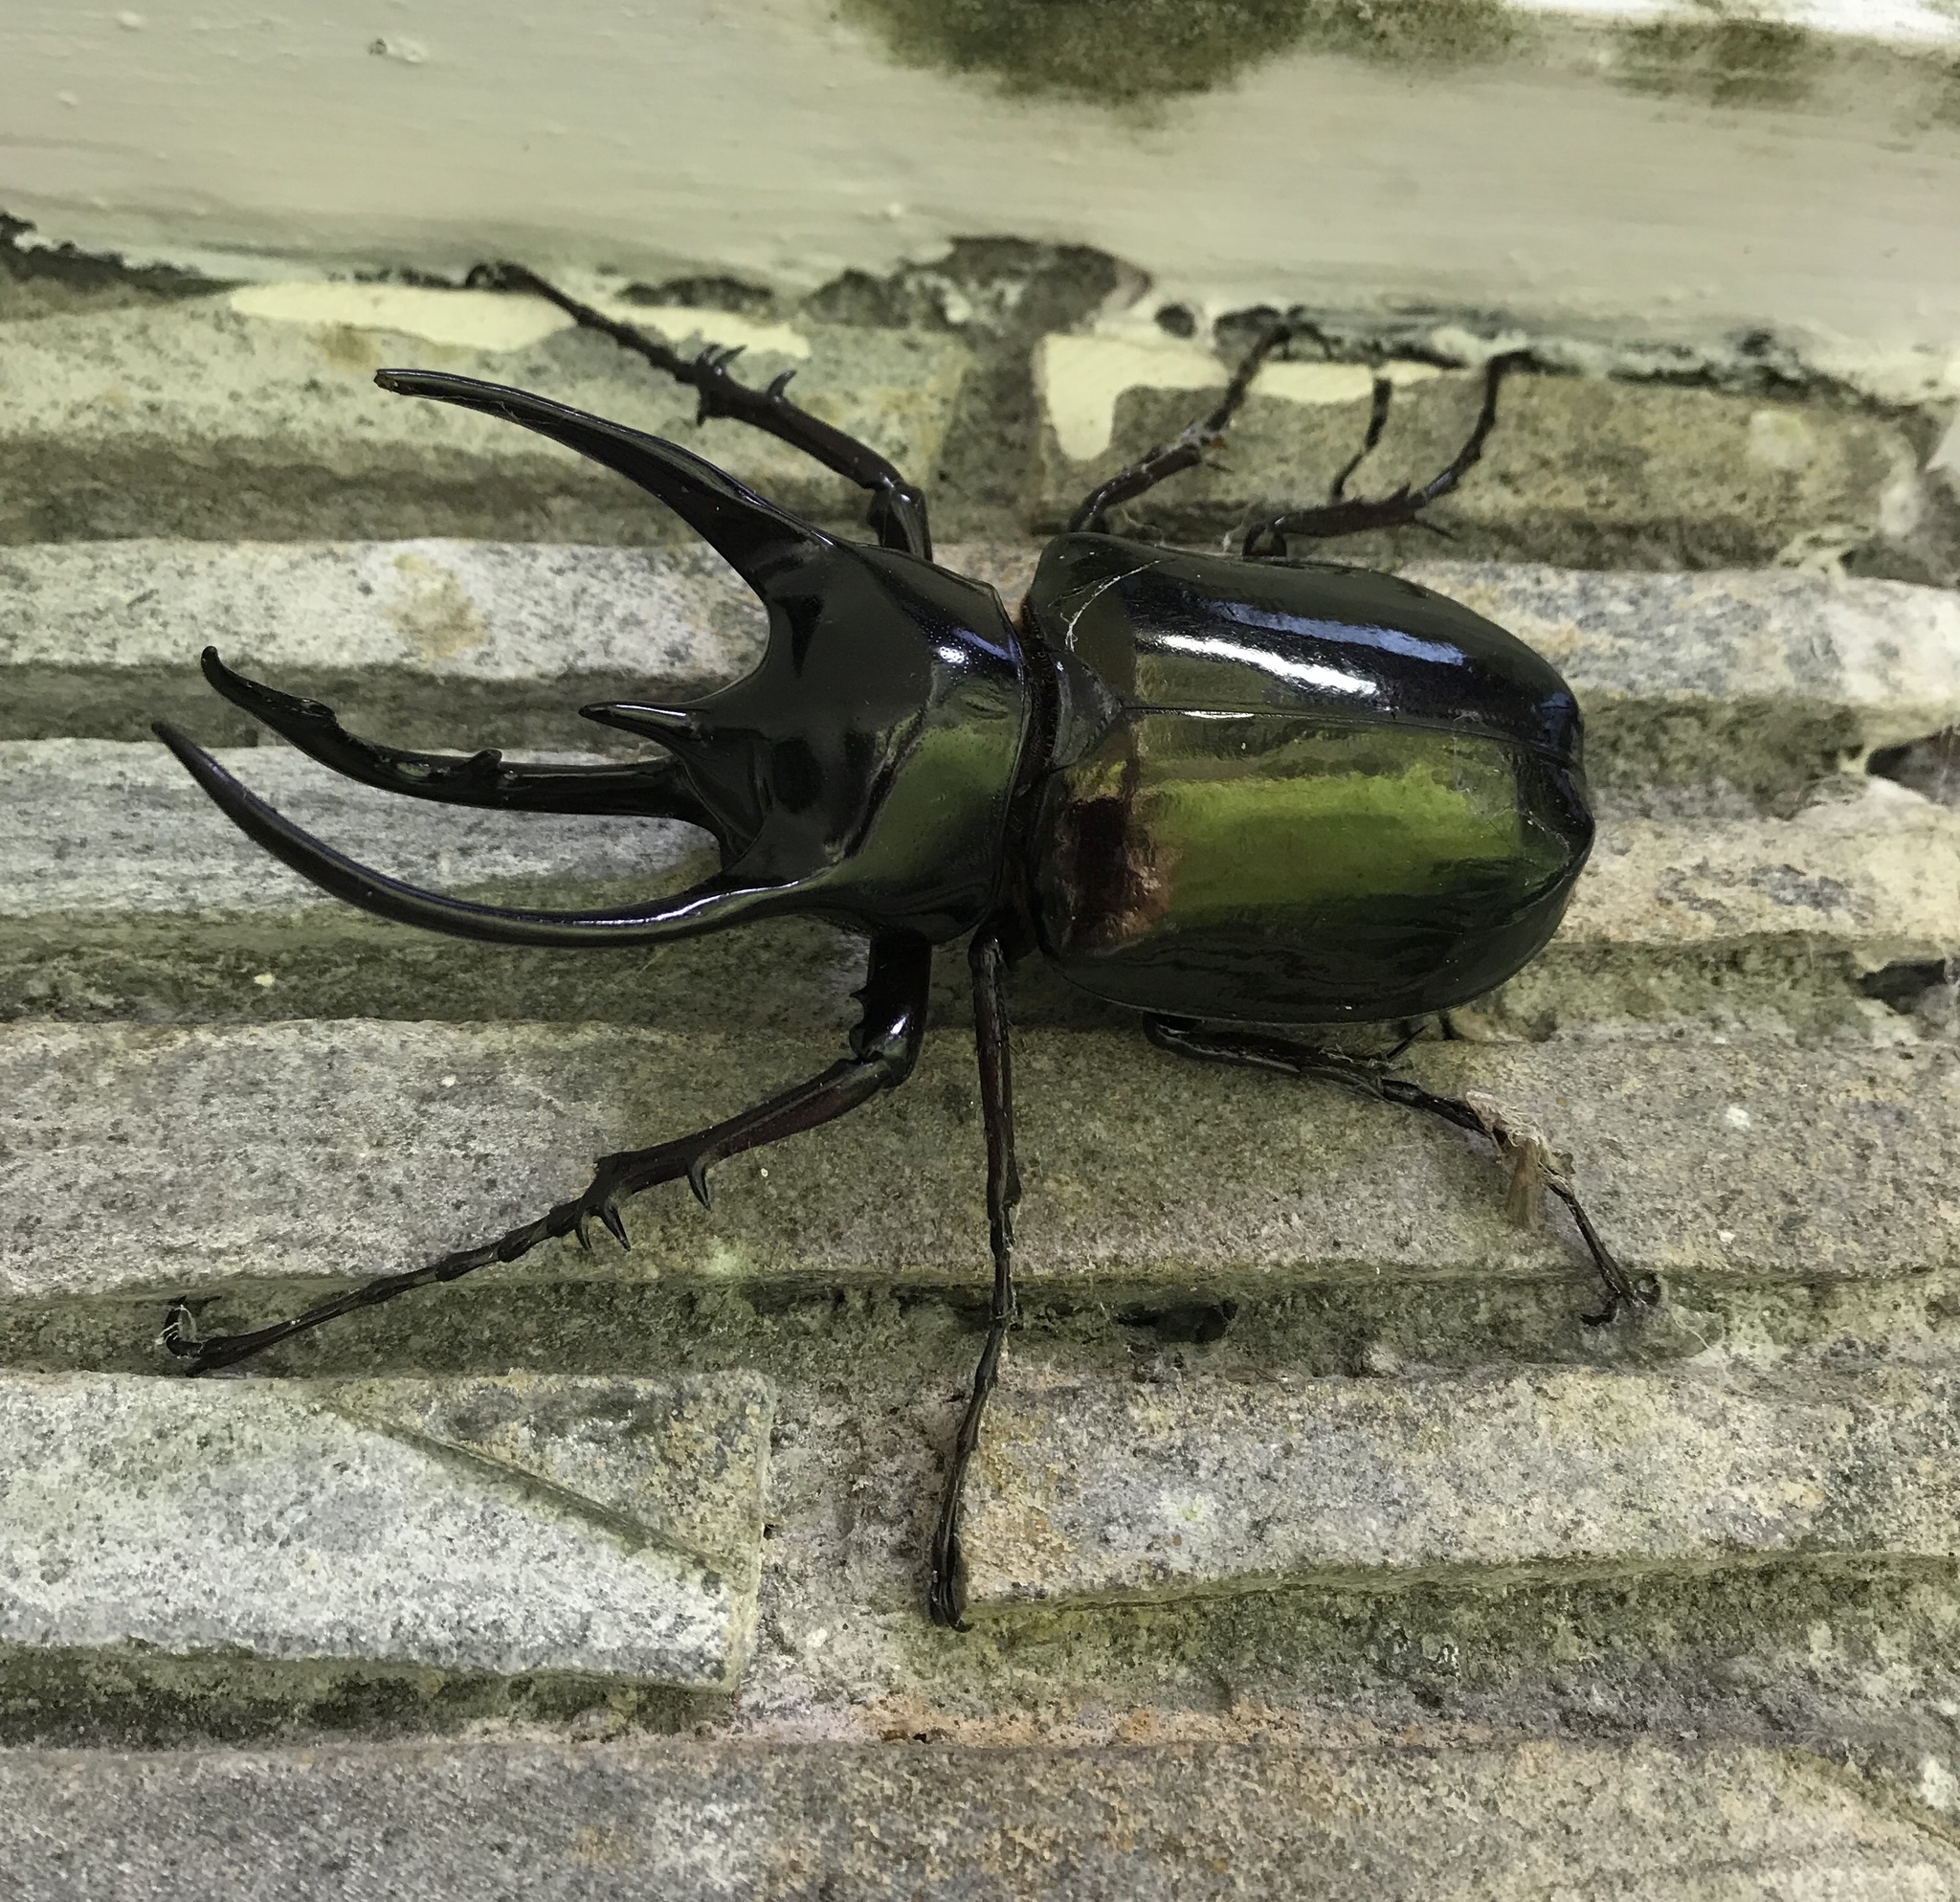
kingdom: Animalia
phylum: Arthropoda
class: Insecta
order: Coleoptera
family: Scarabaeidae
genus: Chalcosoma
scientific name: Chalcosoma chiron
